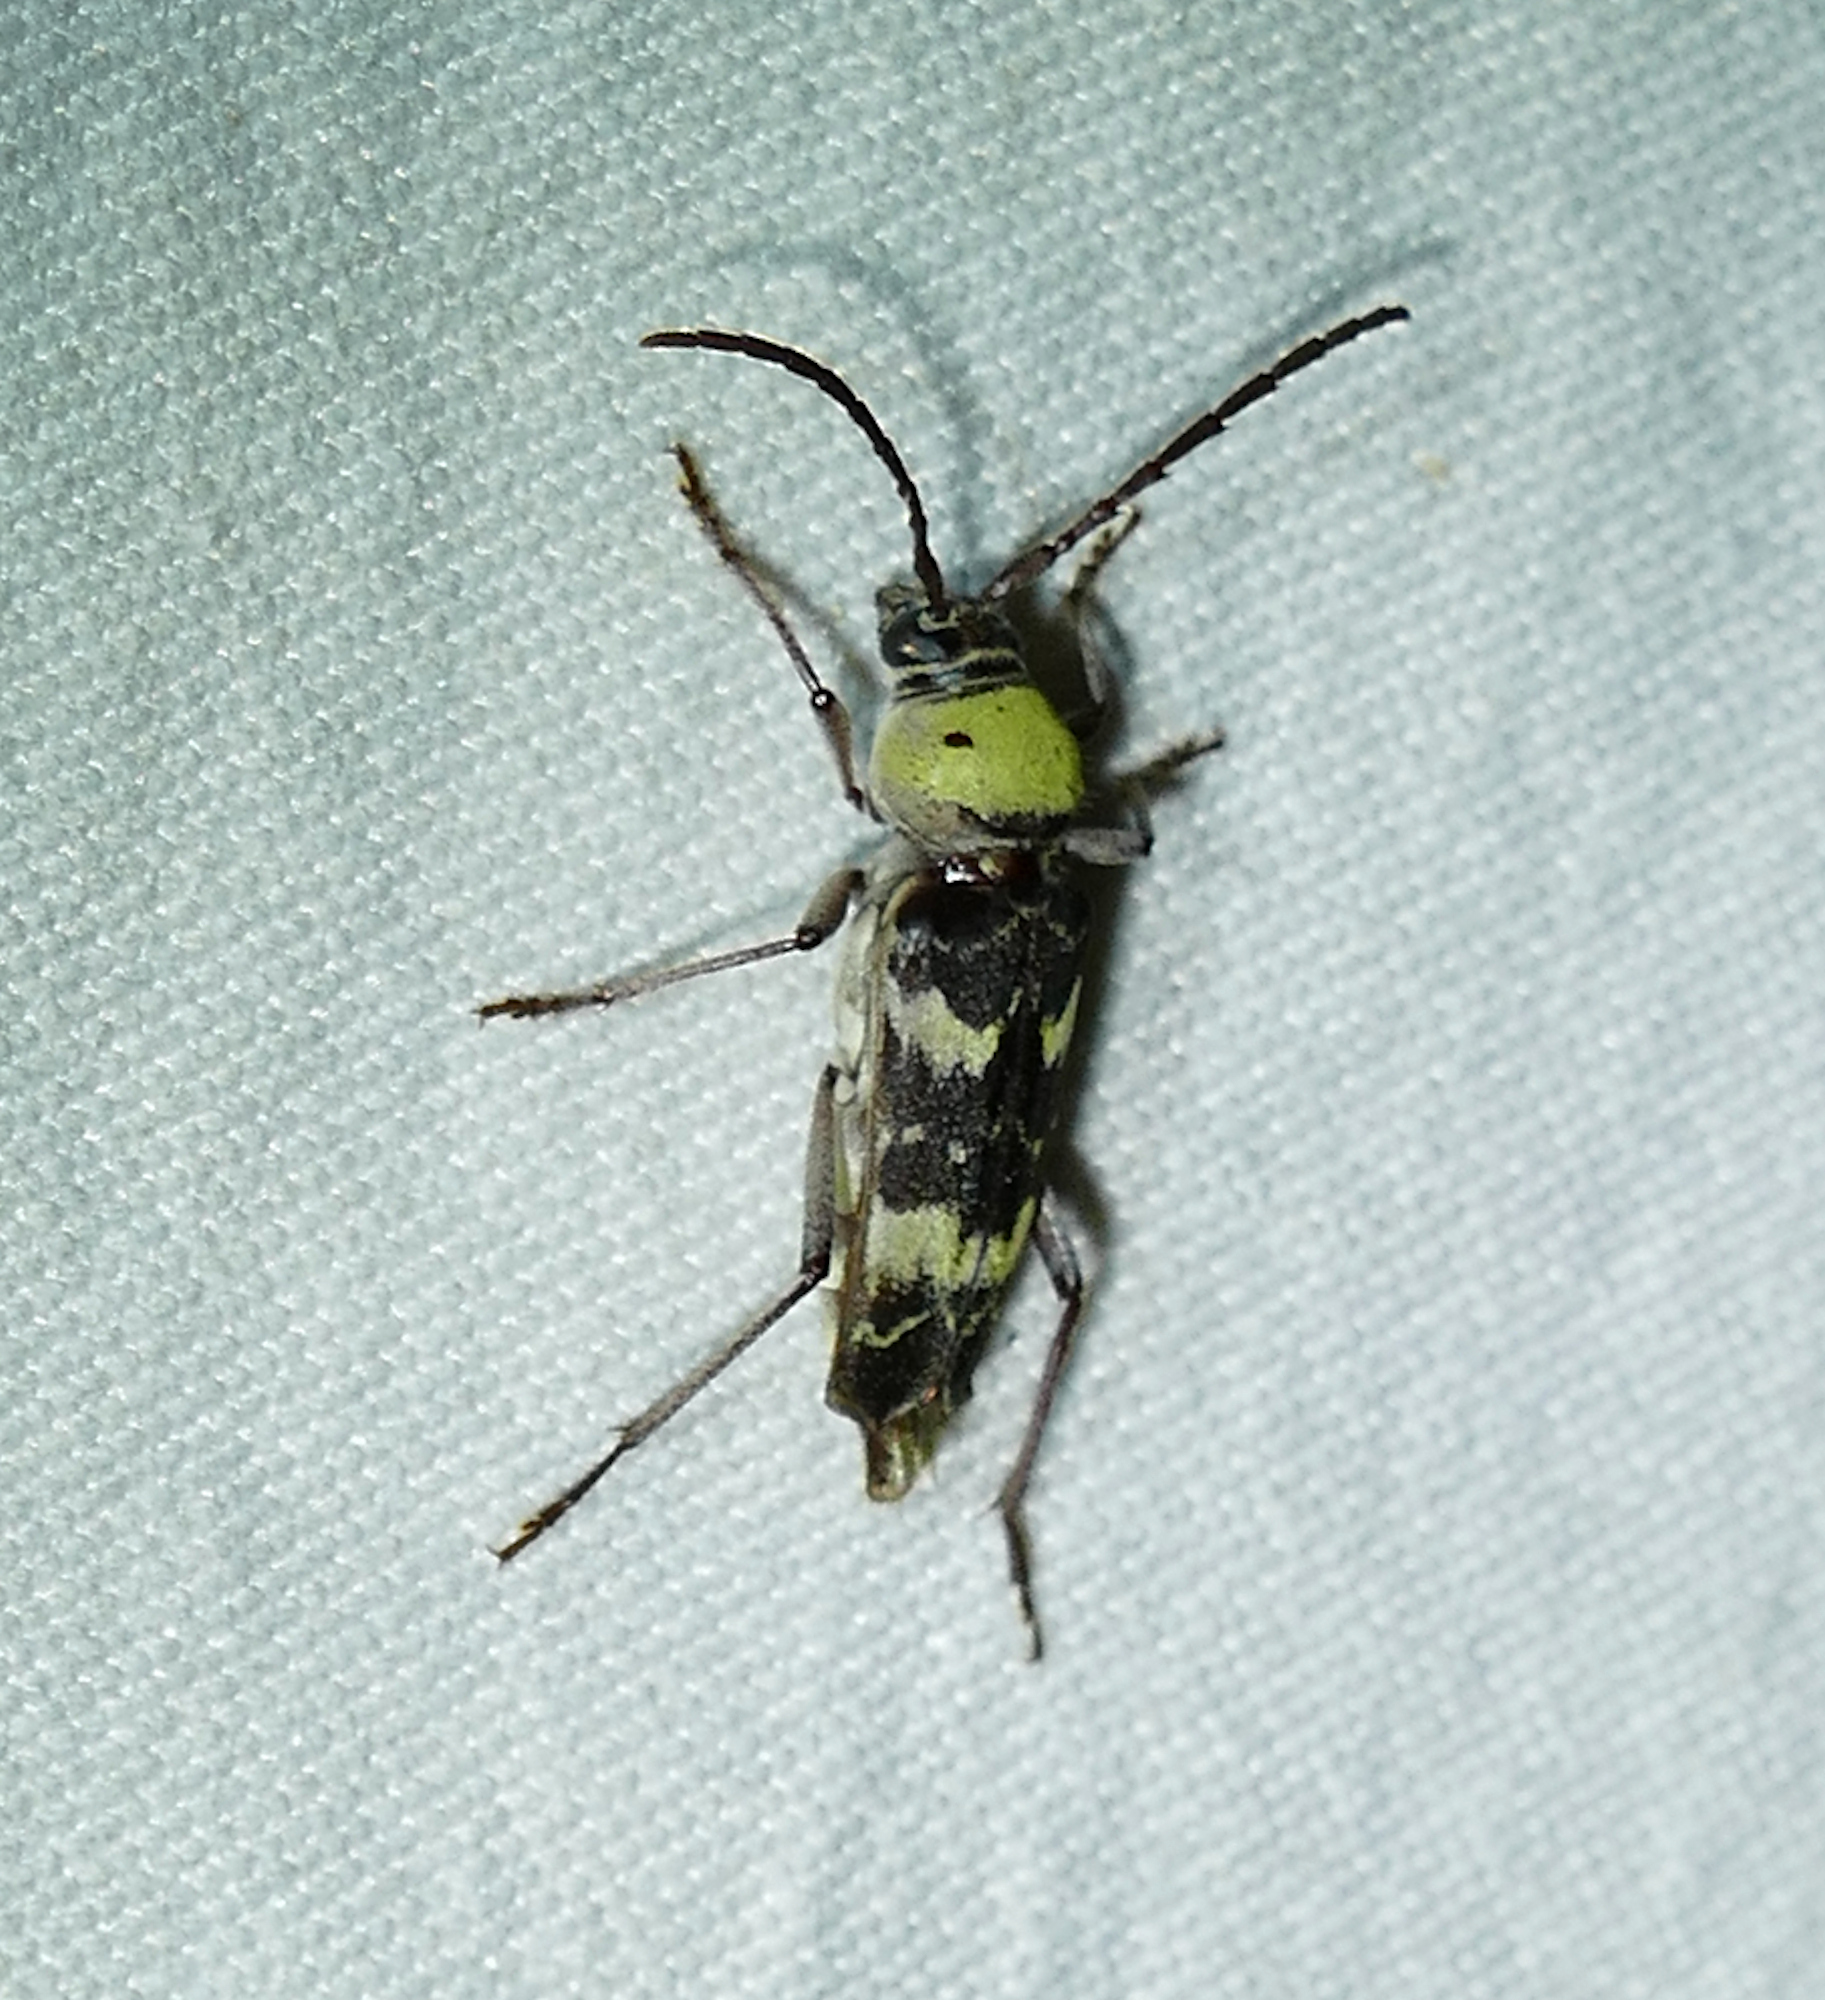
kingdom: Animalia
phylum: Arthropoda
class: Insecta
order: Coleoptera
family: Cerambycidae
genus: Megacyllene
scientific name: Megacyllene antennata
